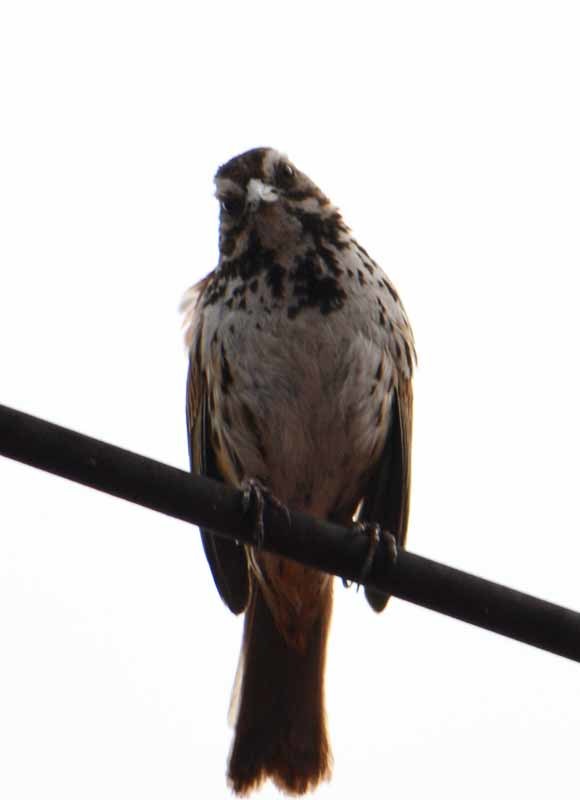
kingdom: Animalia
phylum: Chordata
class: Aves
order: Passeriformes
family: Passerellidae
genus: Melospiza
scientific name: Melospiza melodia
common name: Song sparrow
